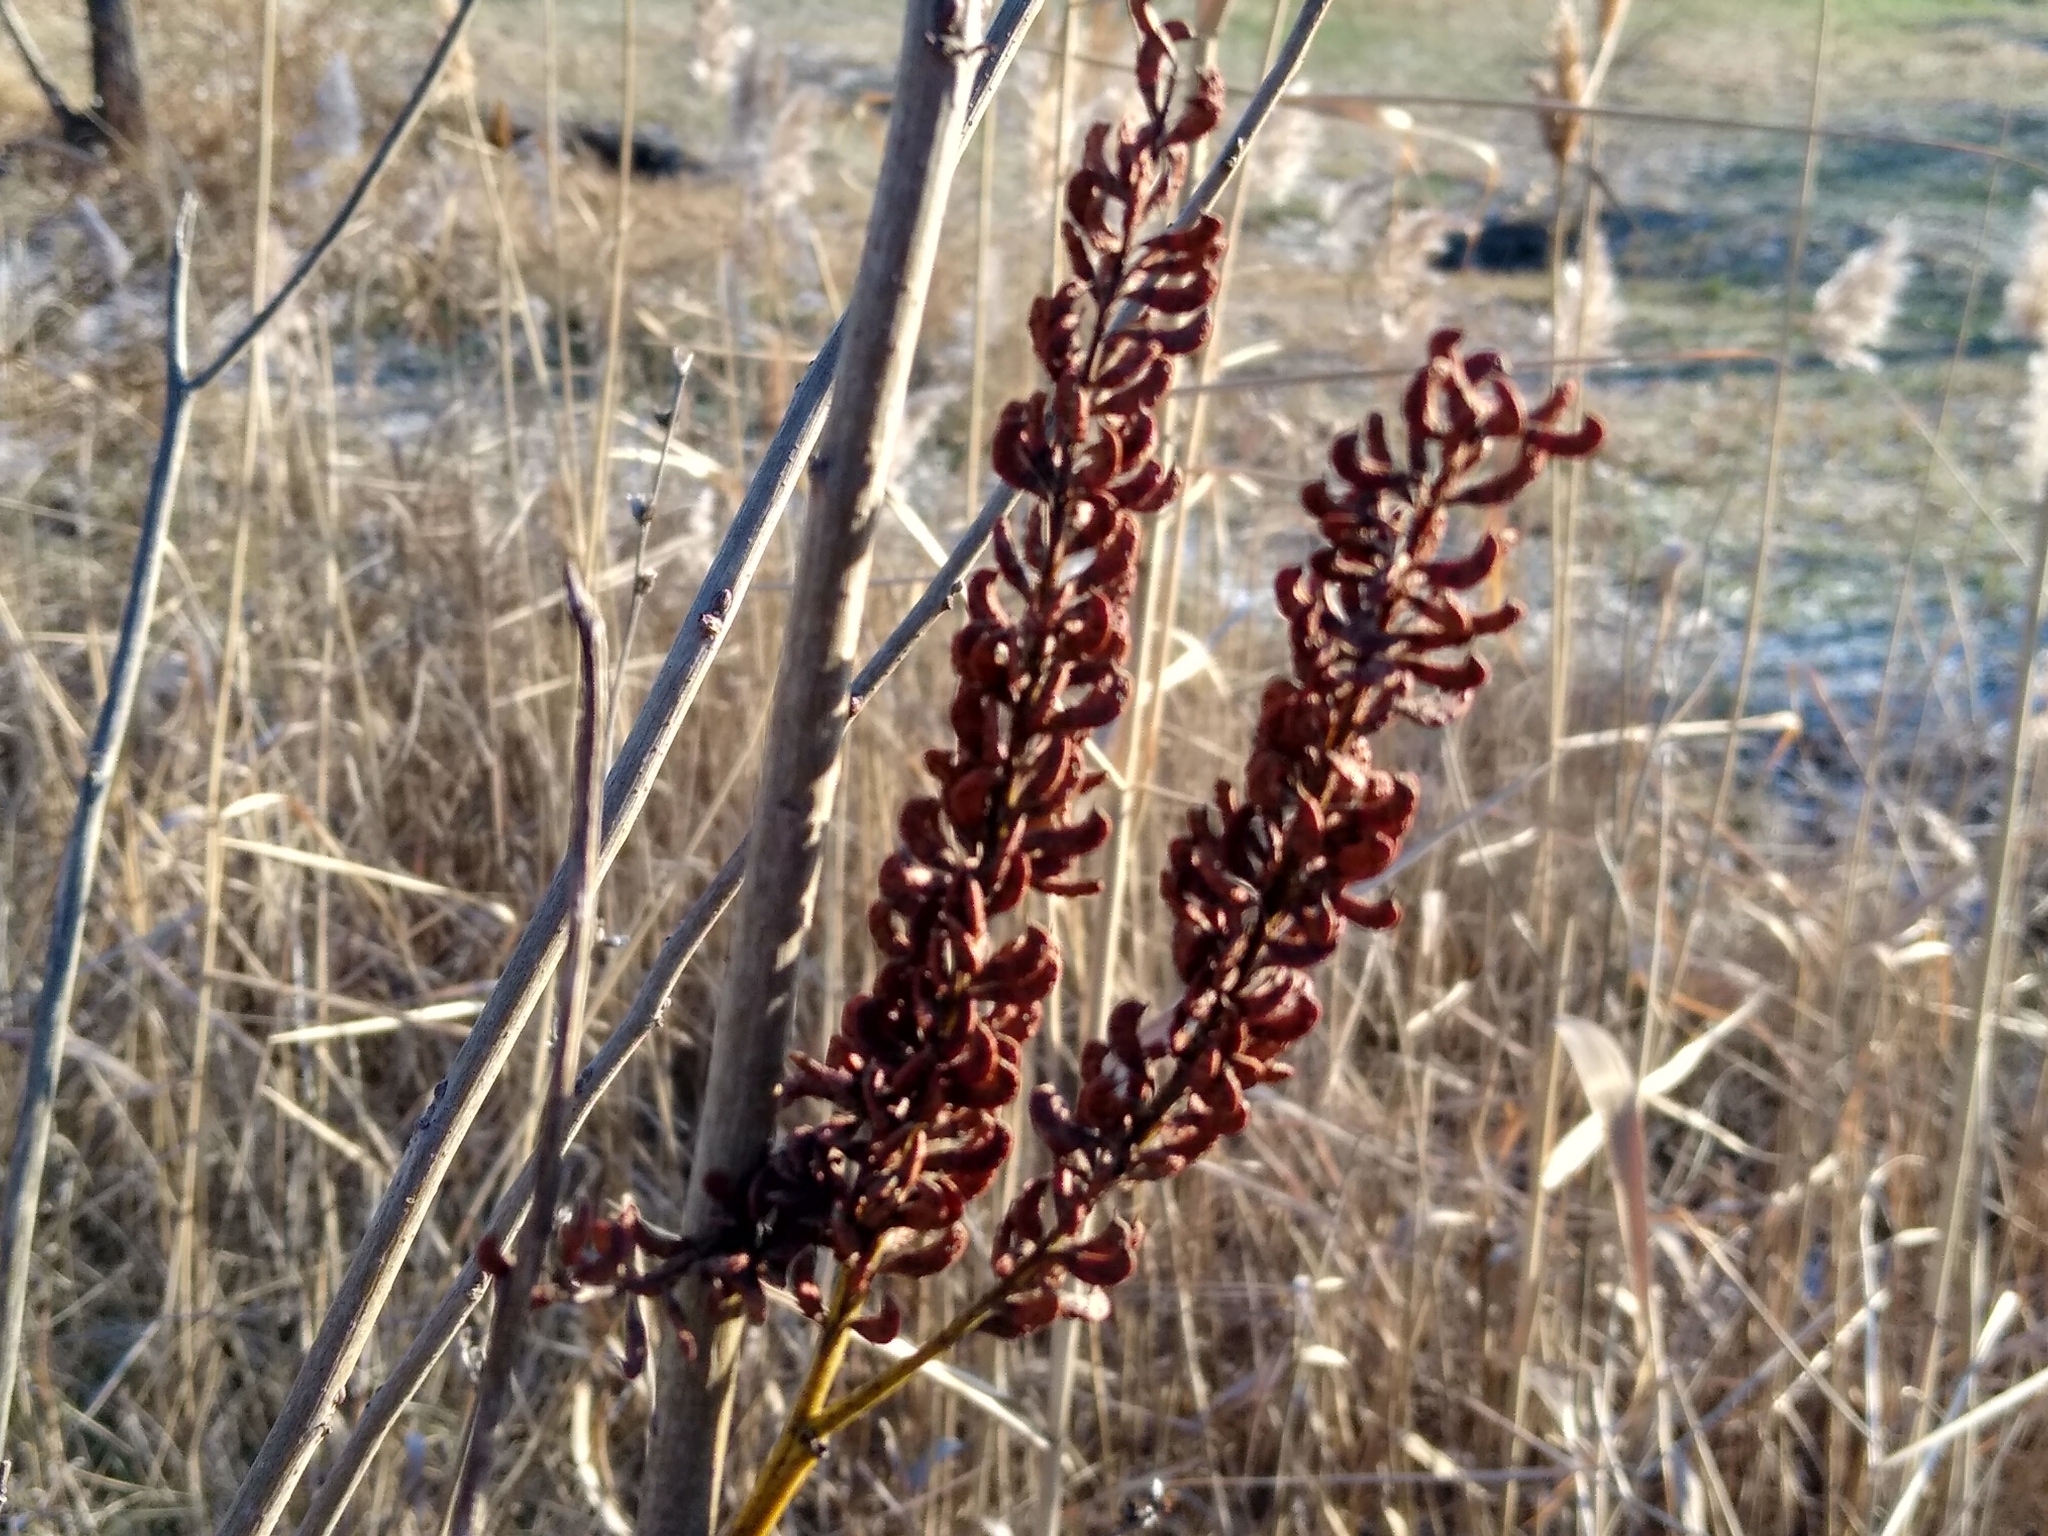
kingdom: Plantae
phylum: Tracheophyta
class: Magnoliopsida
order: Fabales
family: Fabaceae
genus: Amorpha
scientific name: Amorpha fruticosa
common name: False indigo
